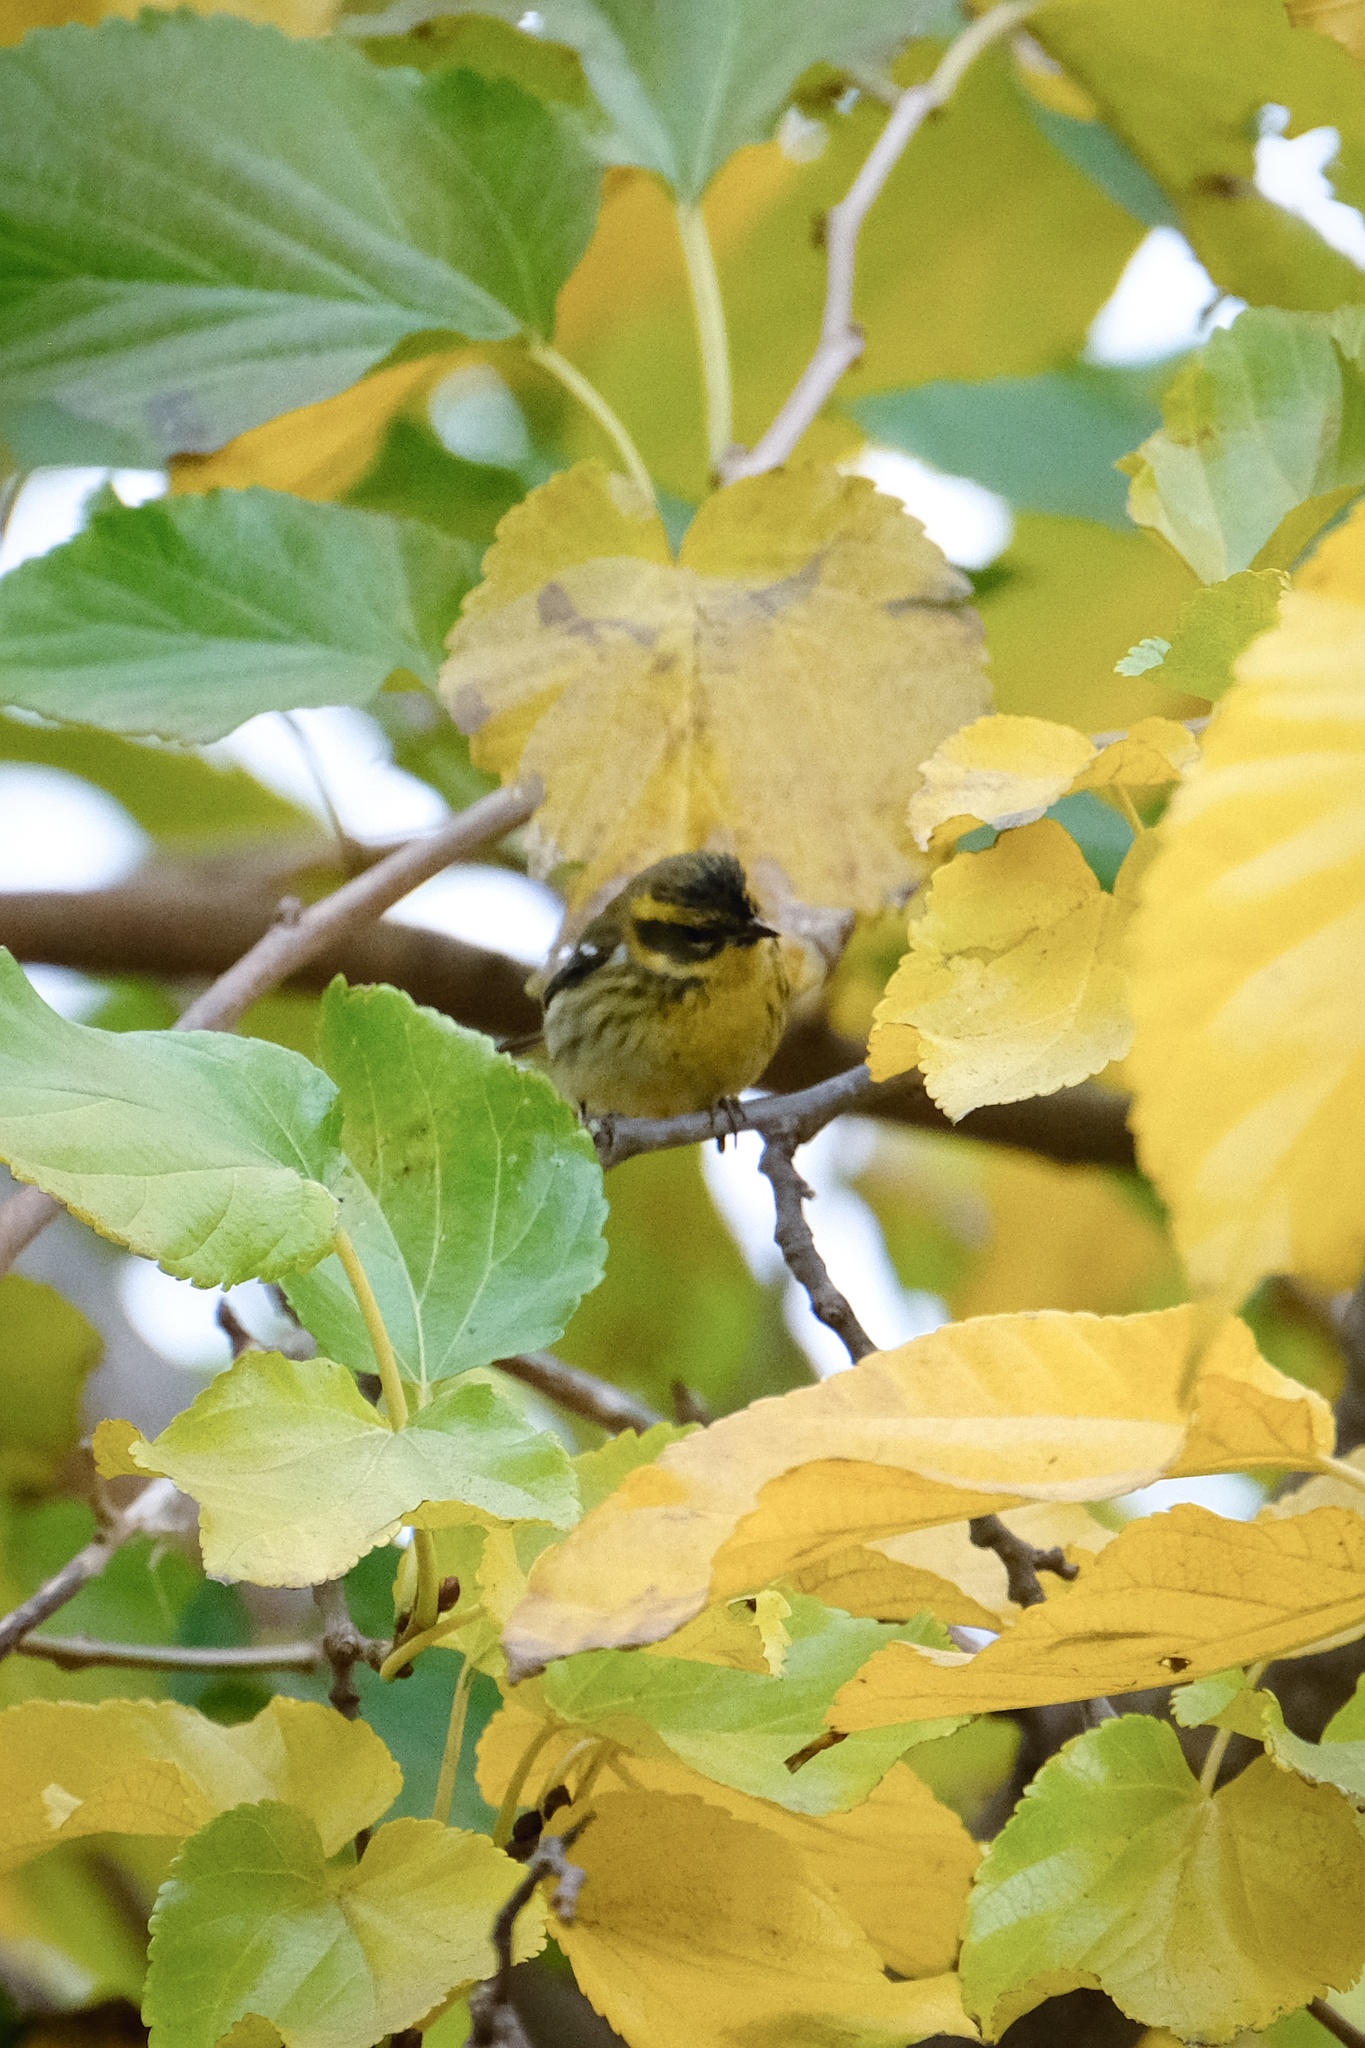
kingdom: Animalia
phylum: Chordata
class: Aves
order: Passeriformes
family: Parulidae
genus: Setophaga
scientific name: Setophaga townsendi
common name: Townsend's warbler
